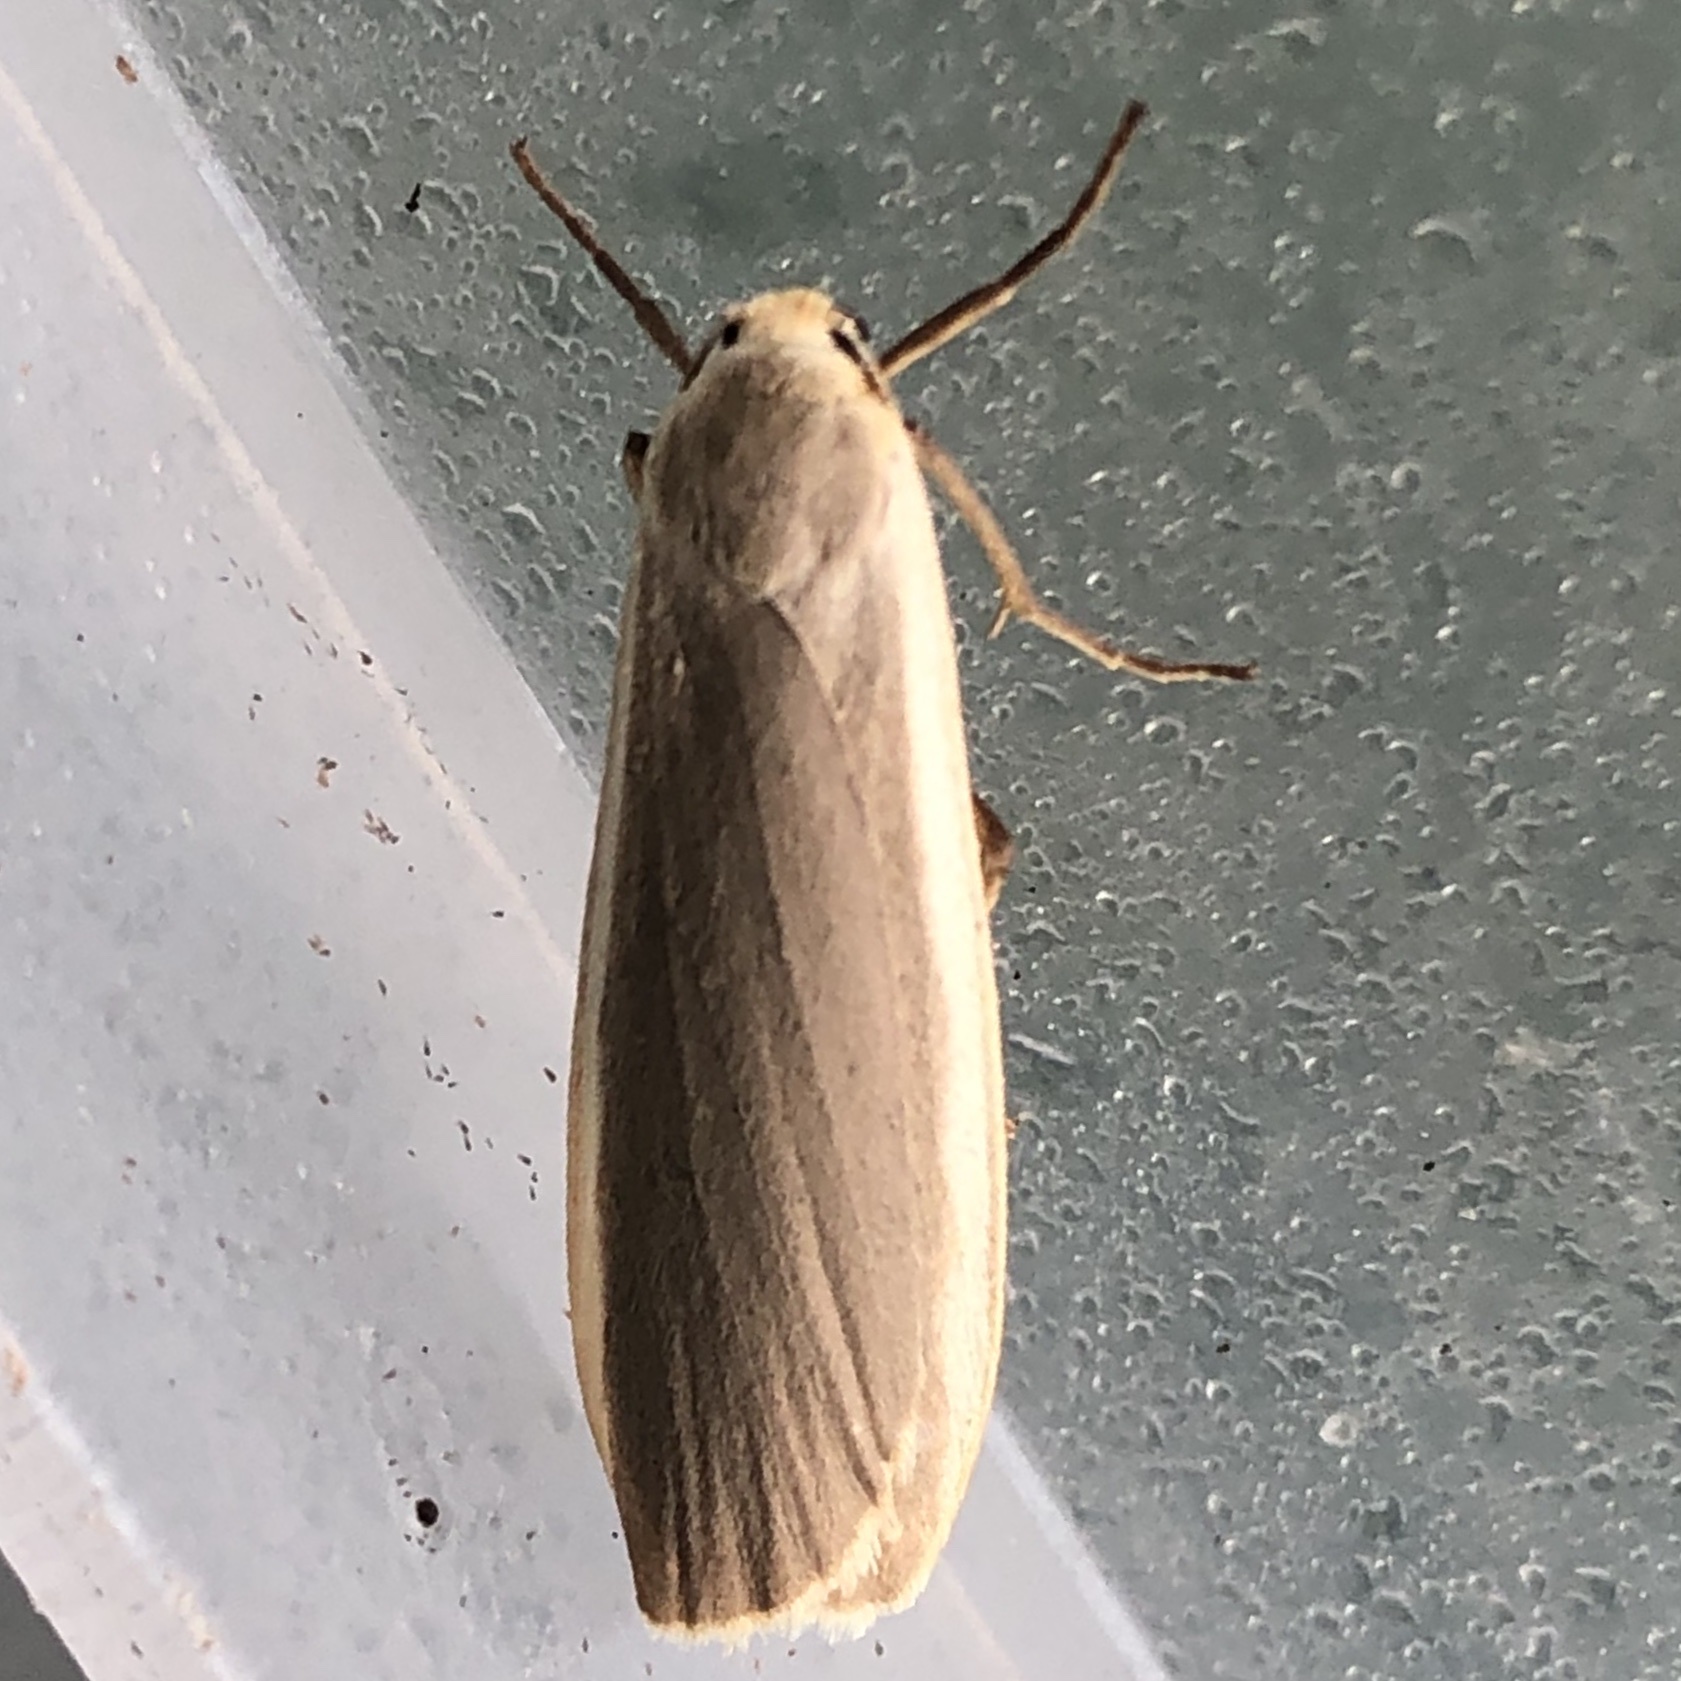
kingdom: Animalia
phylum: Arthropoda
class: Insecta
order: Lepidoptera
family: Erebidae
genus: Nyea
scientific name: Nyea lurideola
